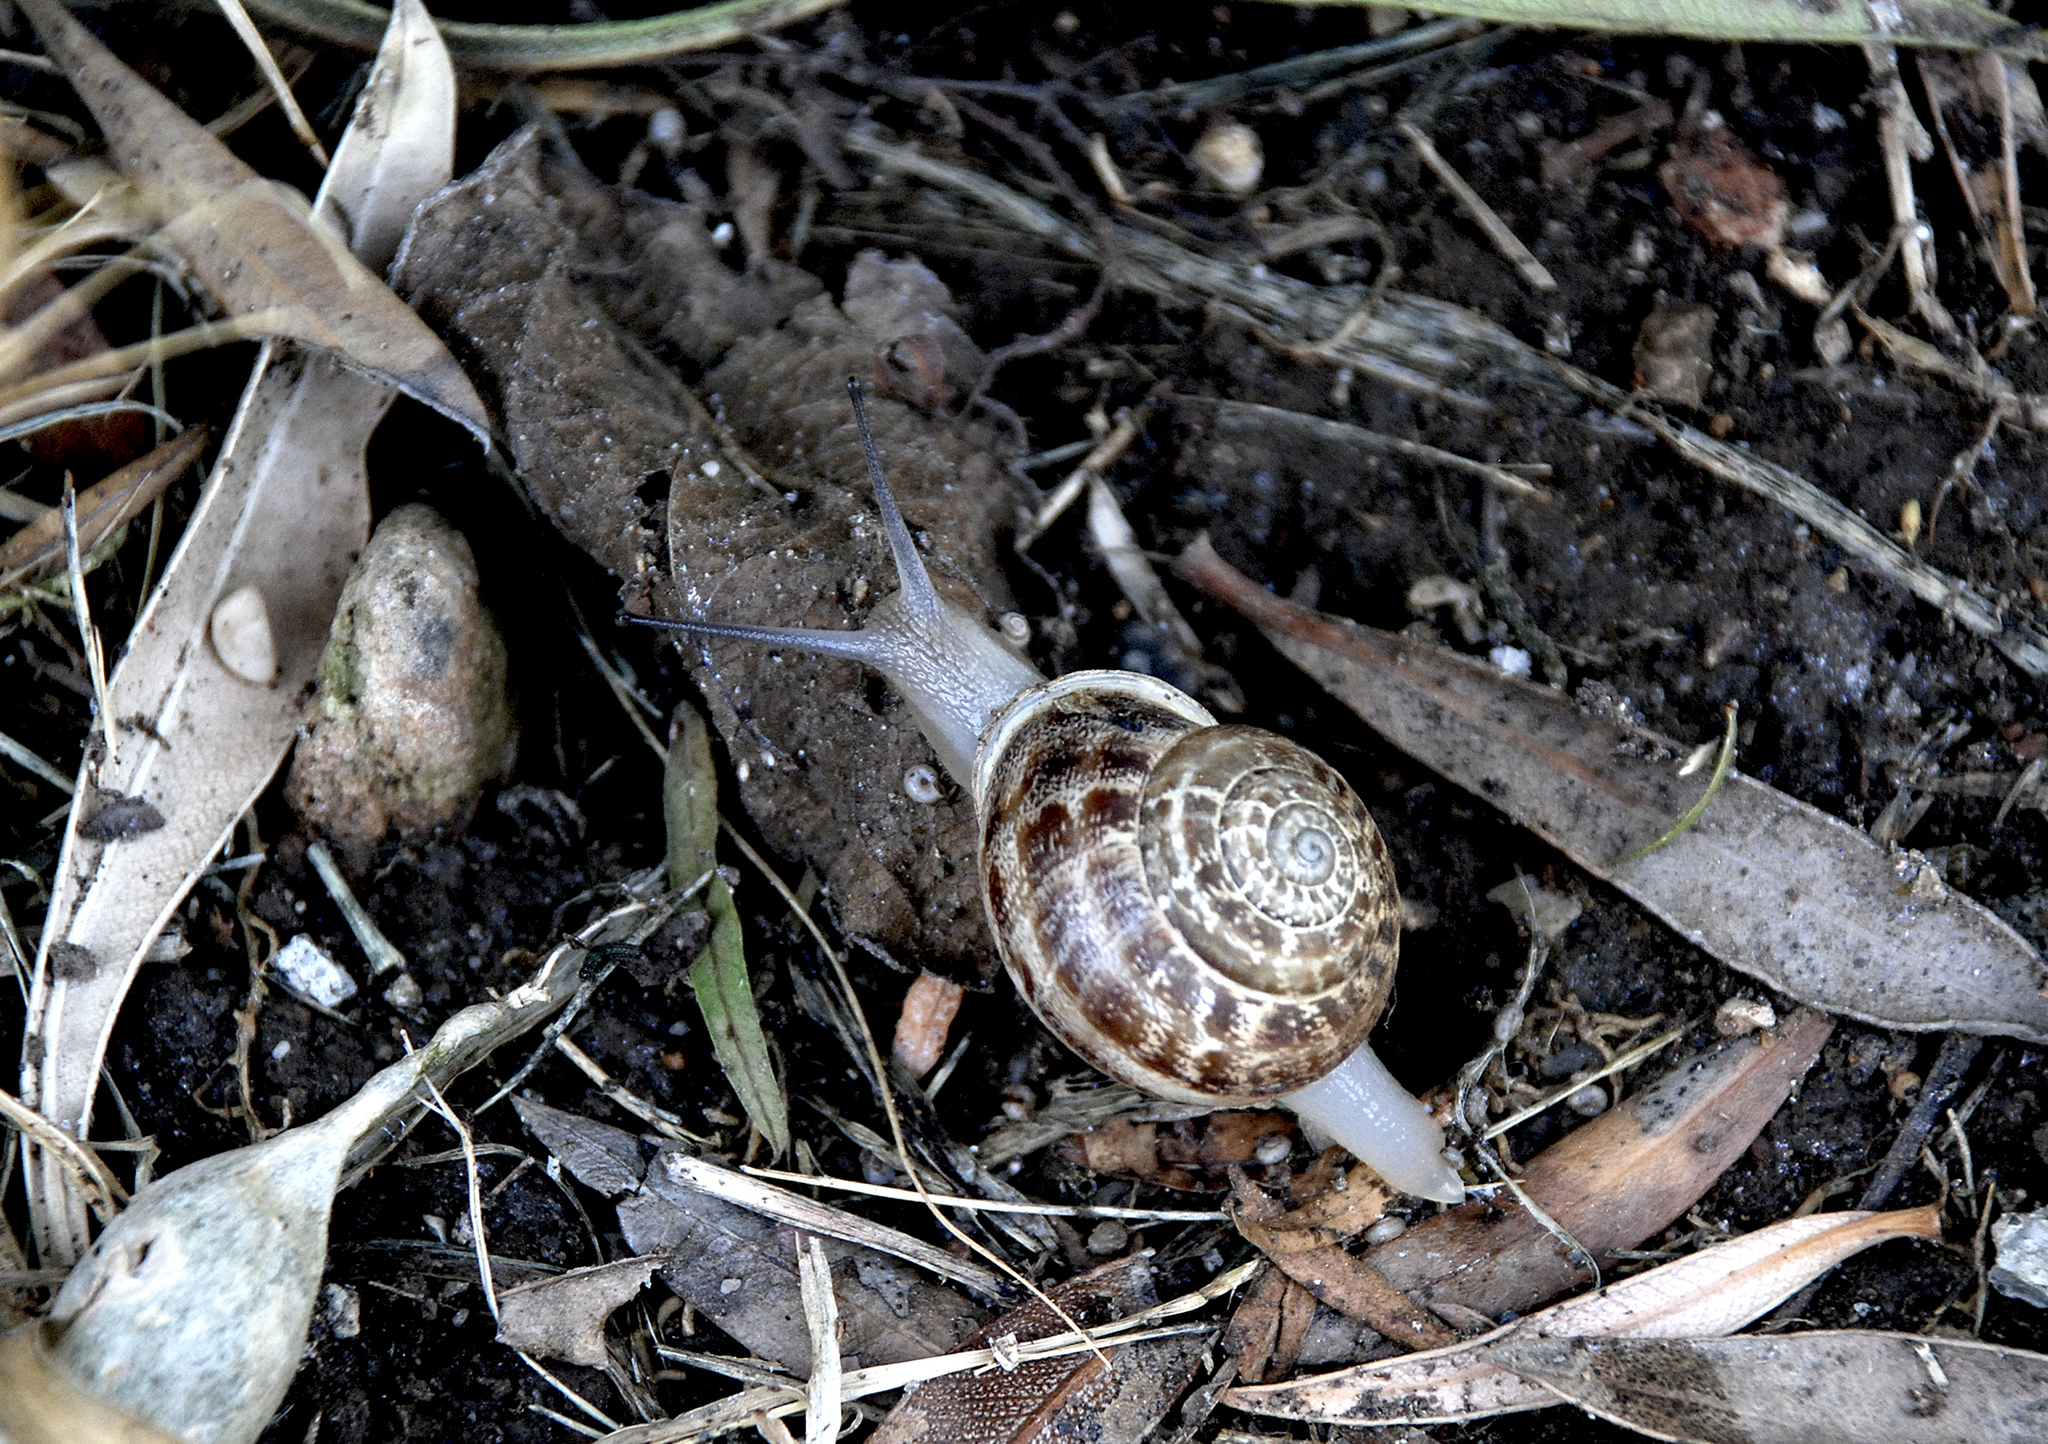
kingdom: Animalia
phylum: Mollusca
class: Gastropoda
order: Stylommatophora
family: Helicidae
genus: Eobania
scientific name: Eobania vermiculata
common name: Chocolateband snail
